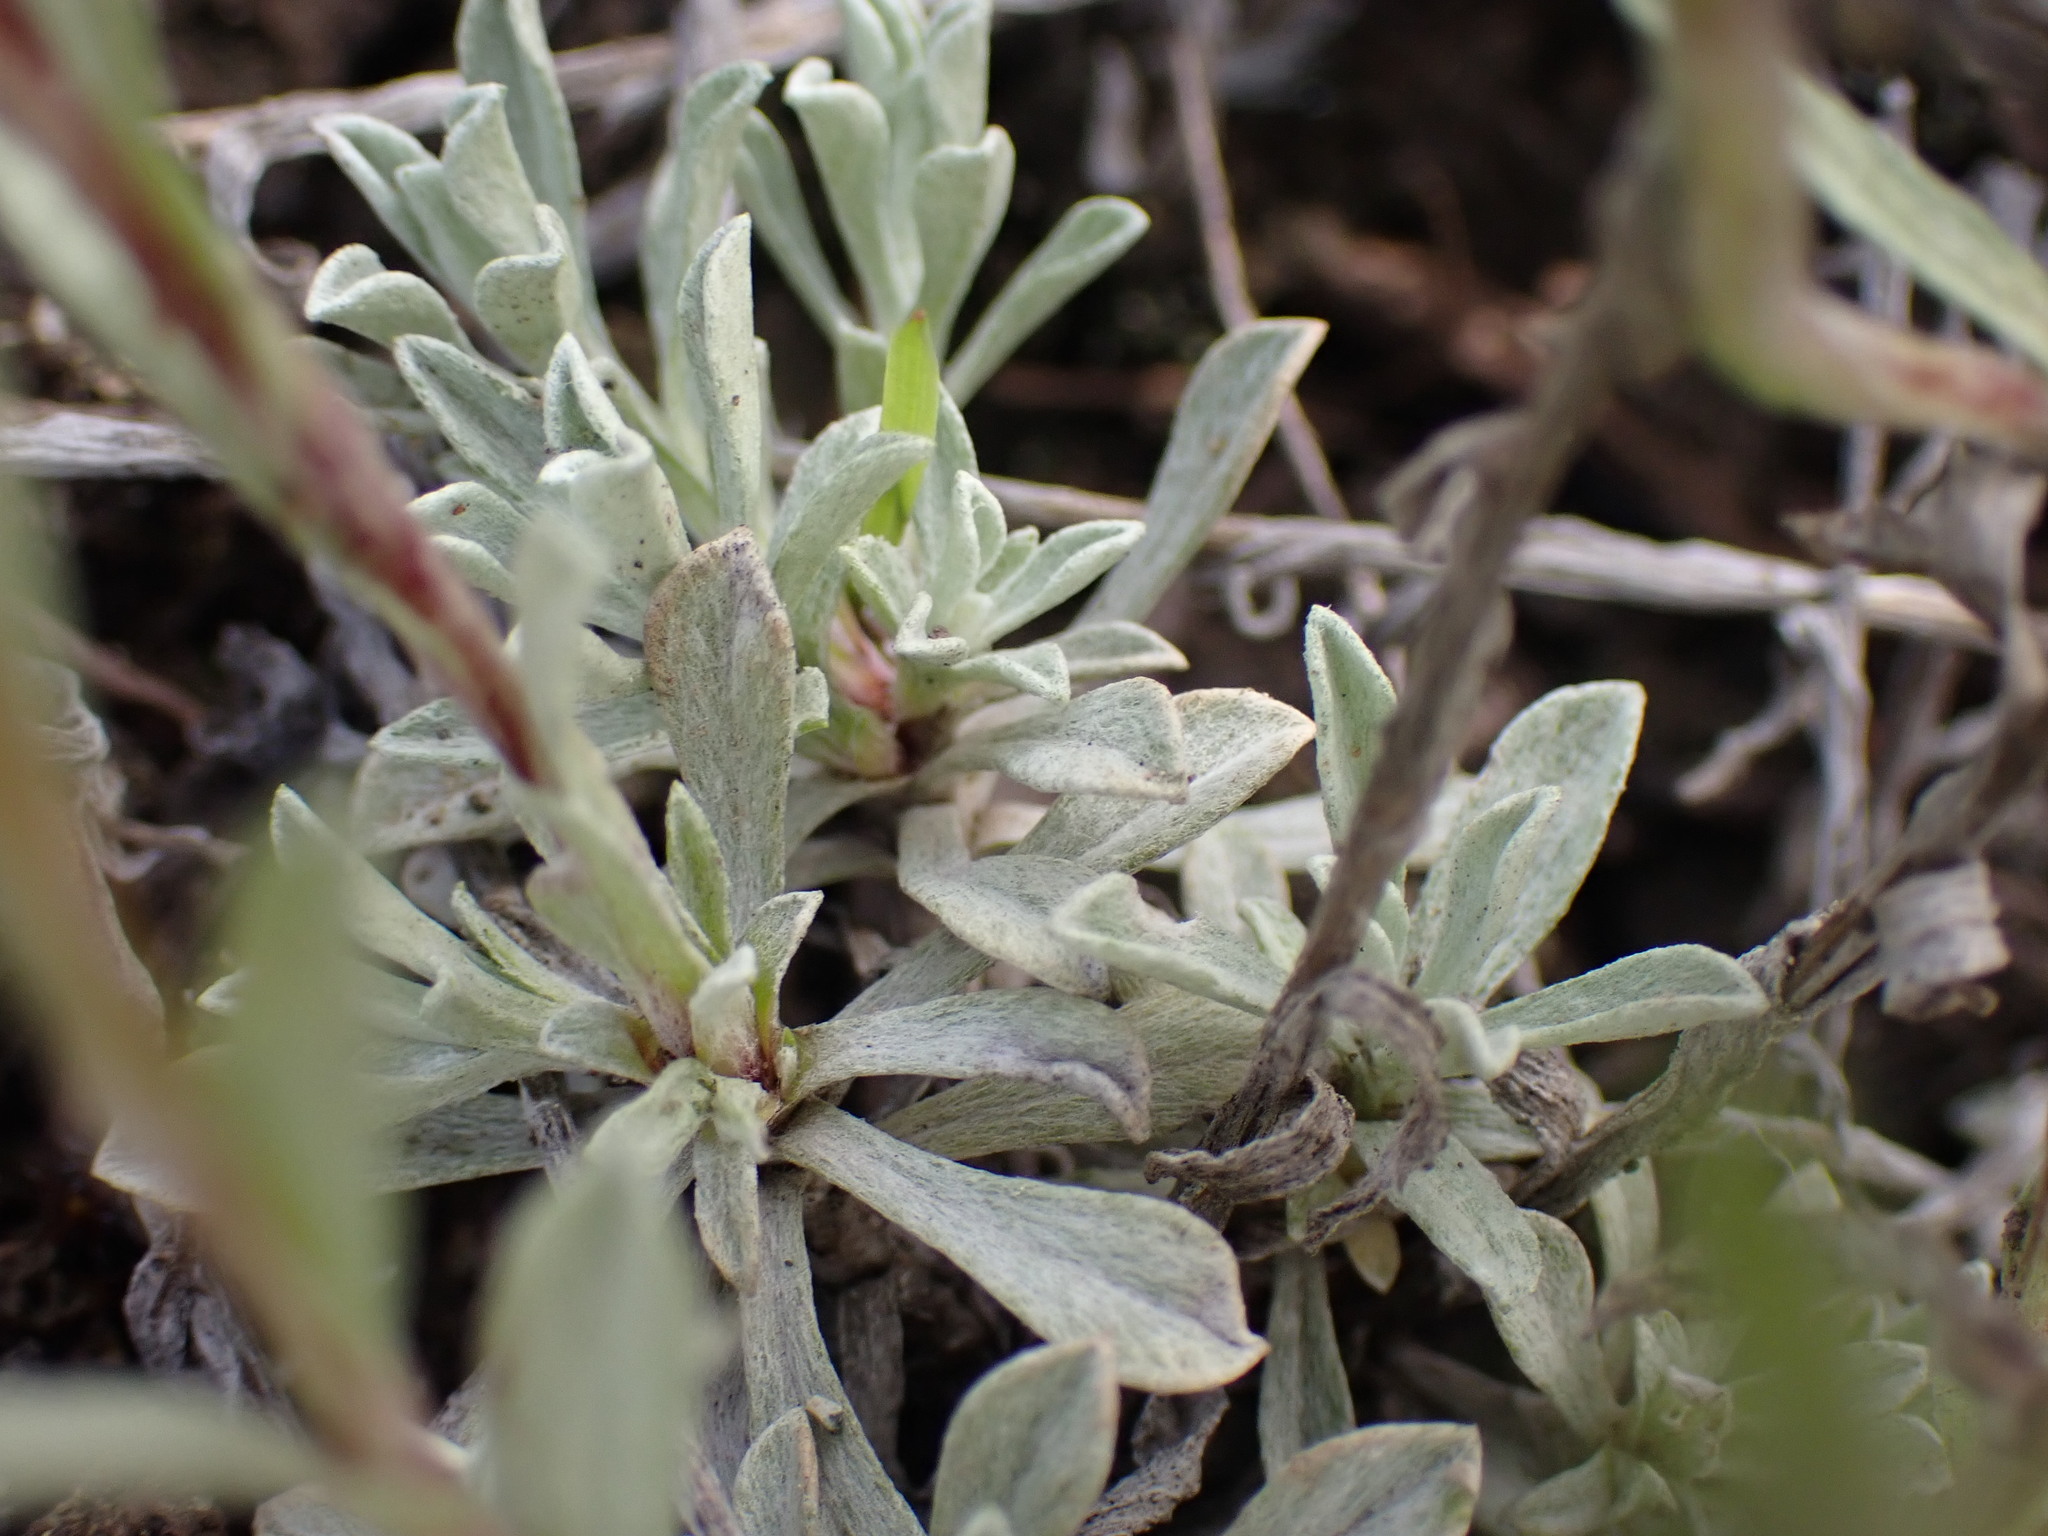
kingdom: Plantae
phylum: Tracheophyta
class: Magnoliopsida
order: Asterales
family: Asteraceae
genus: Antennaria
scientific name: Antennaria rosea
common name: Rosy pussytoes
